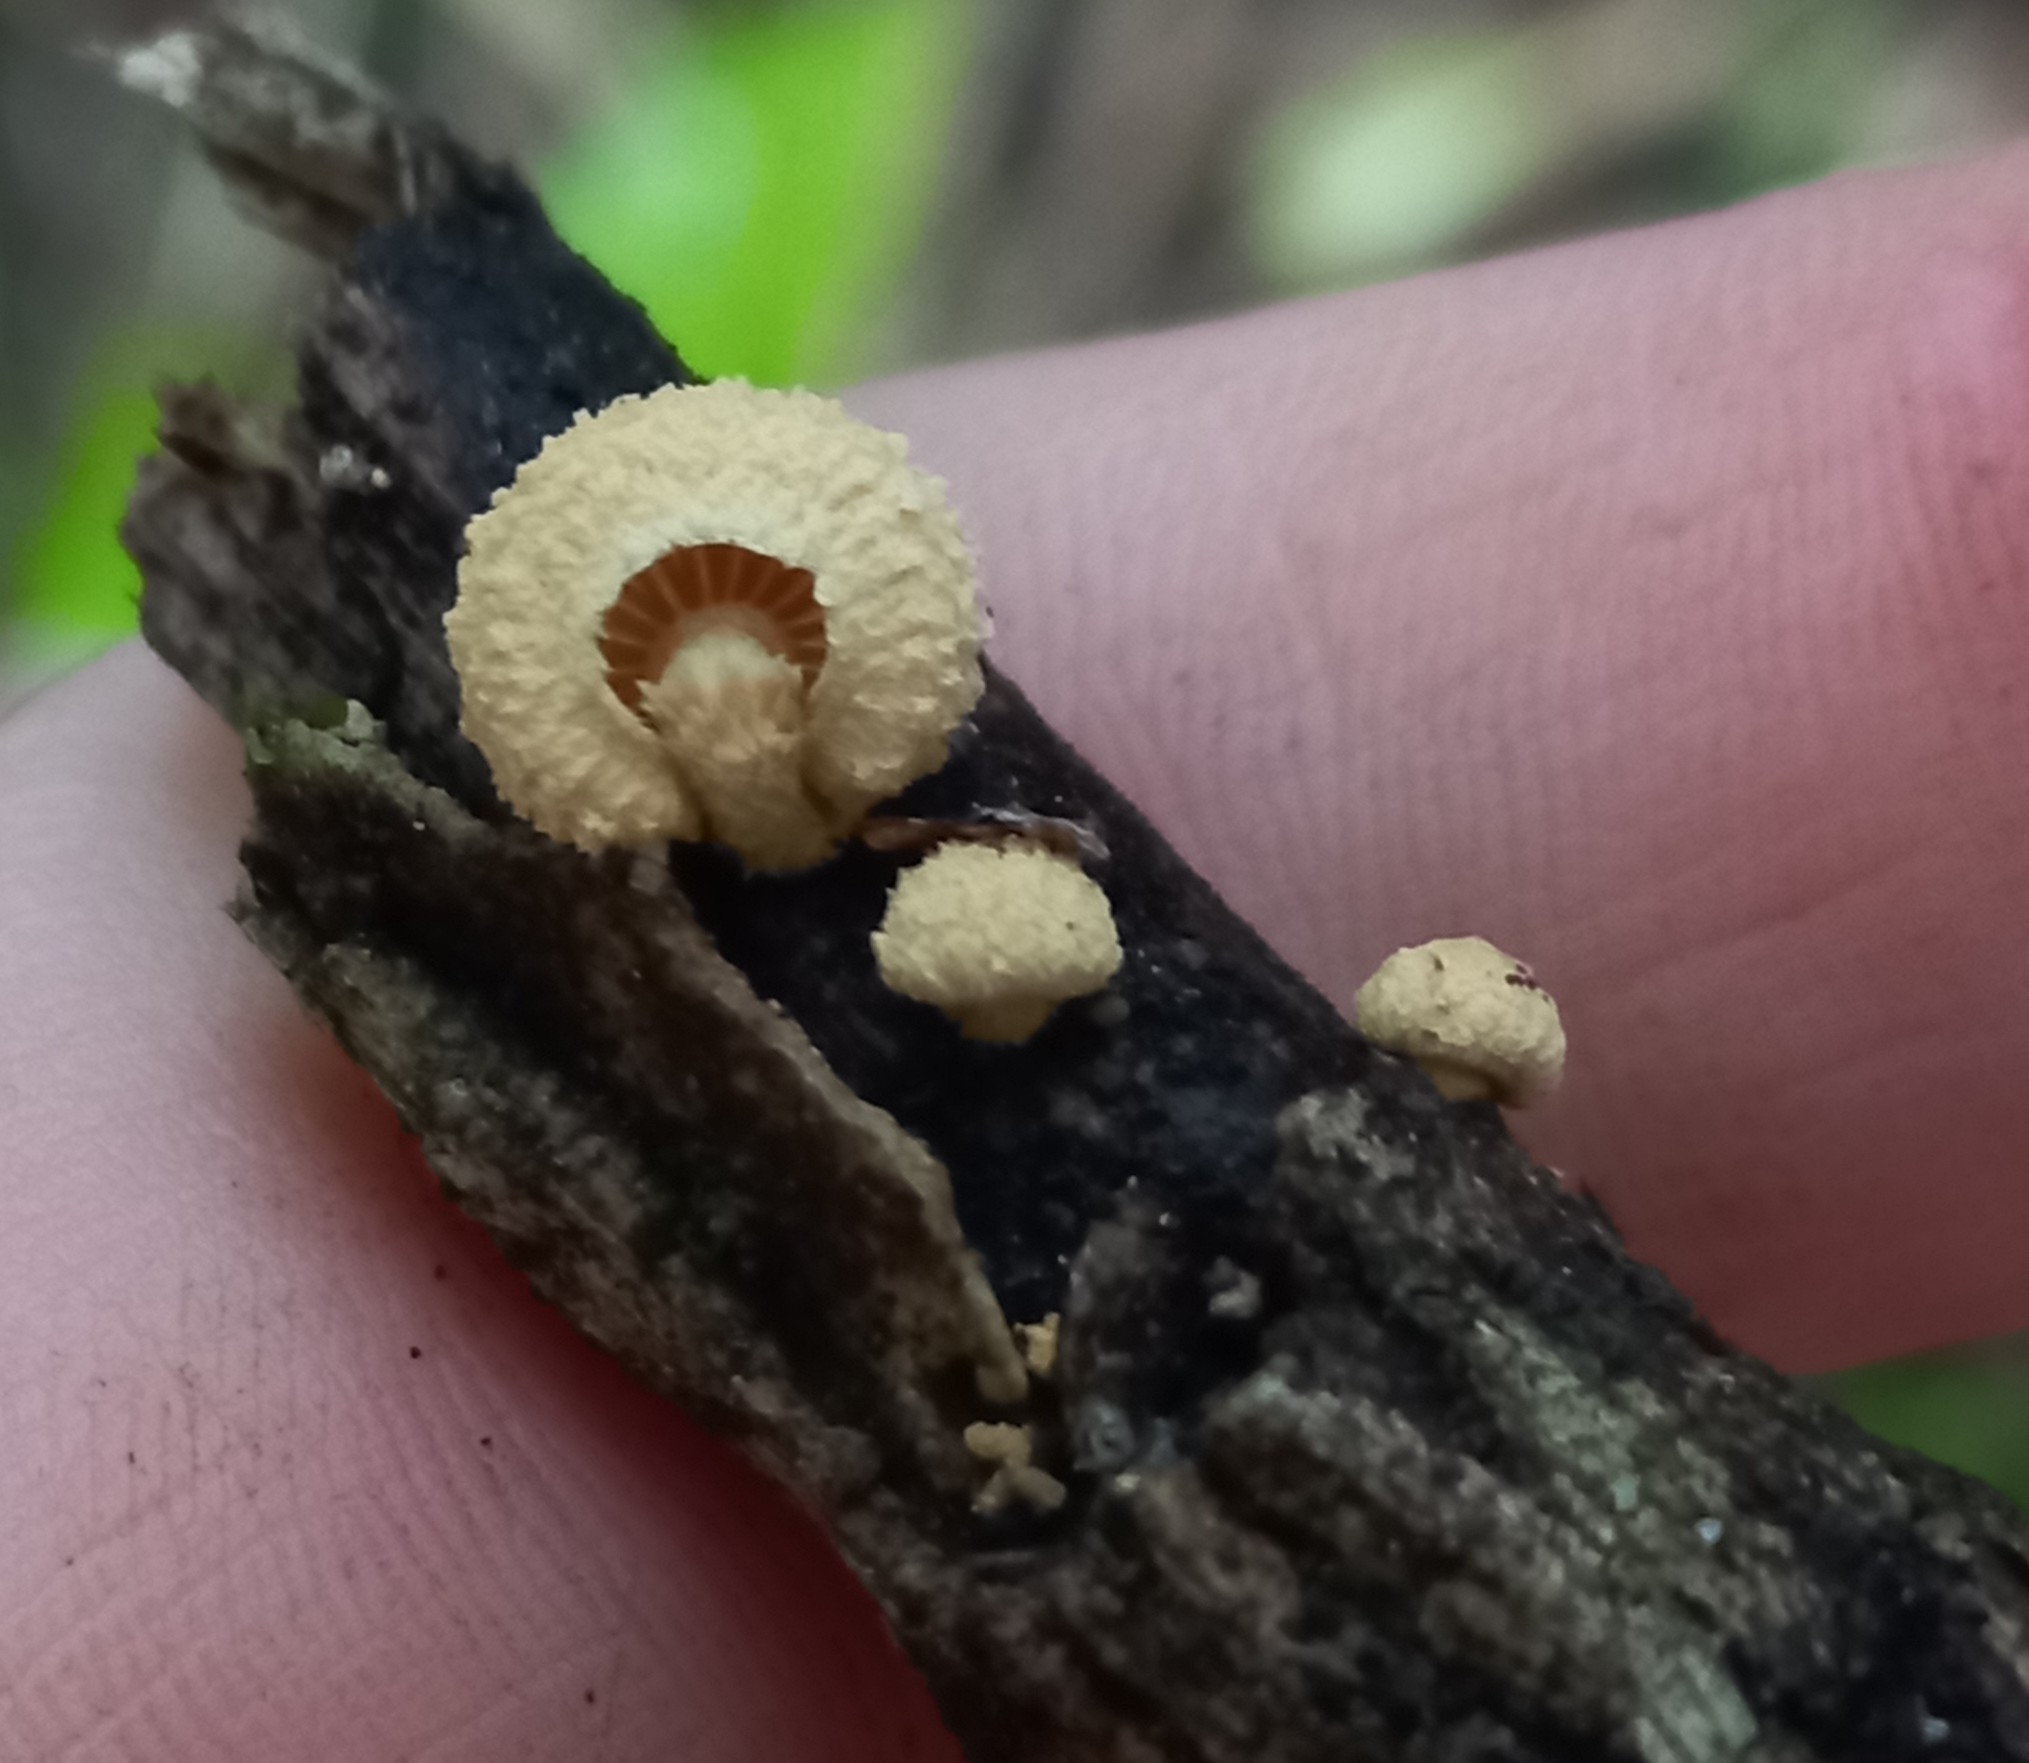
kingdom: Fungi
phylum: Basidiomycota
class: Agaricomycetes
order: Agaricales
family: Crepidotaceae
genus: Pleuroflammula
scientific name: Pleuroflammula praestans
